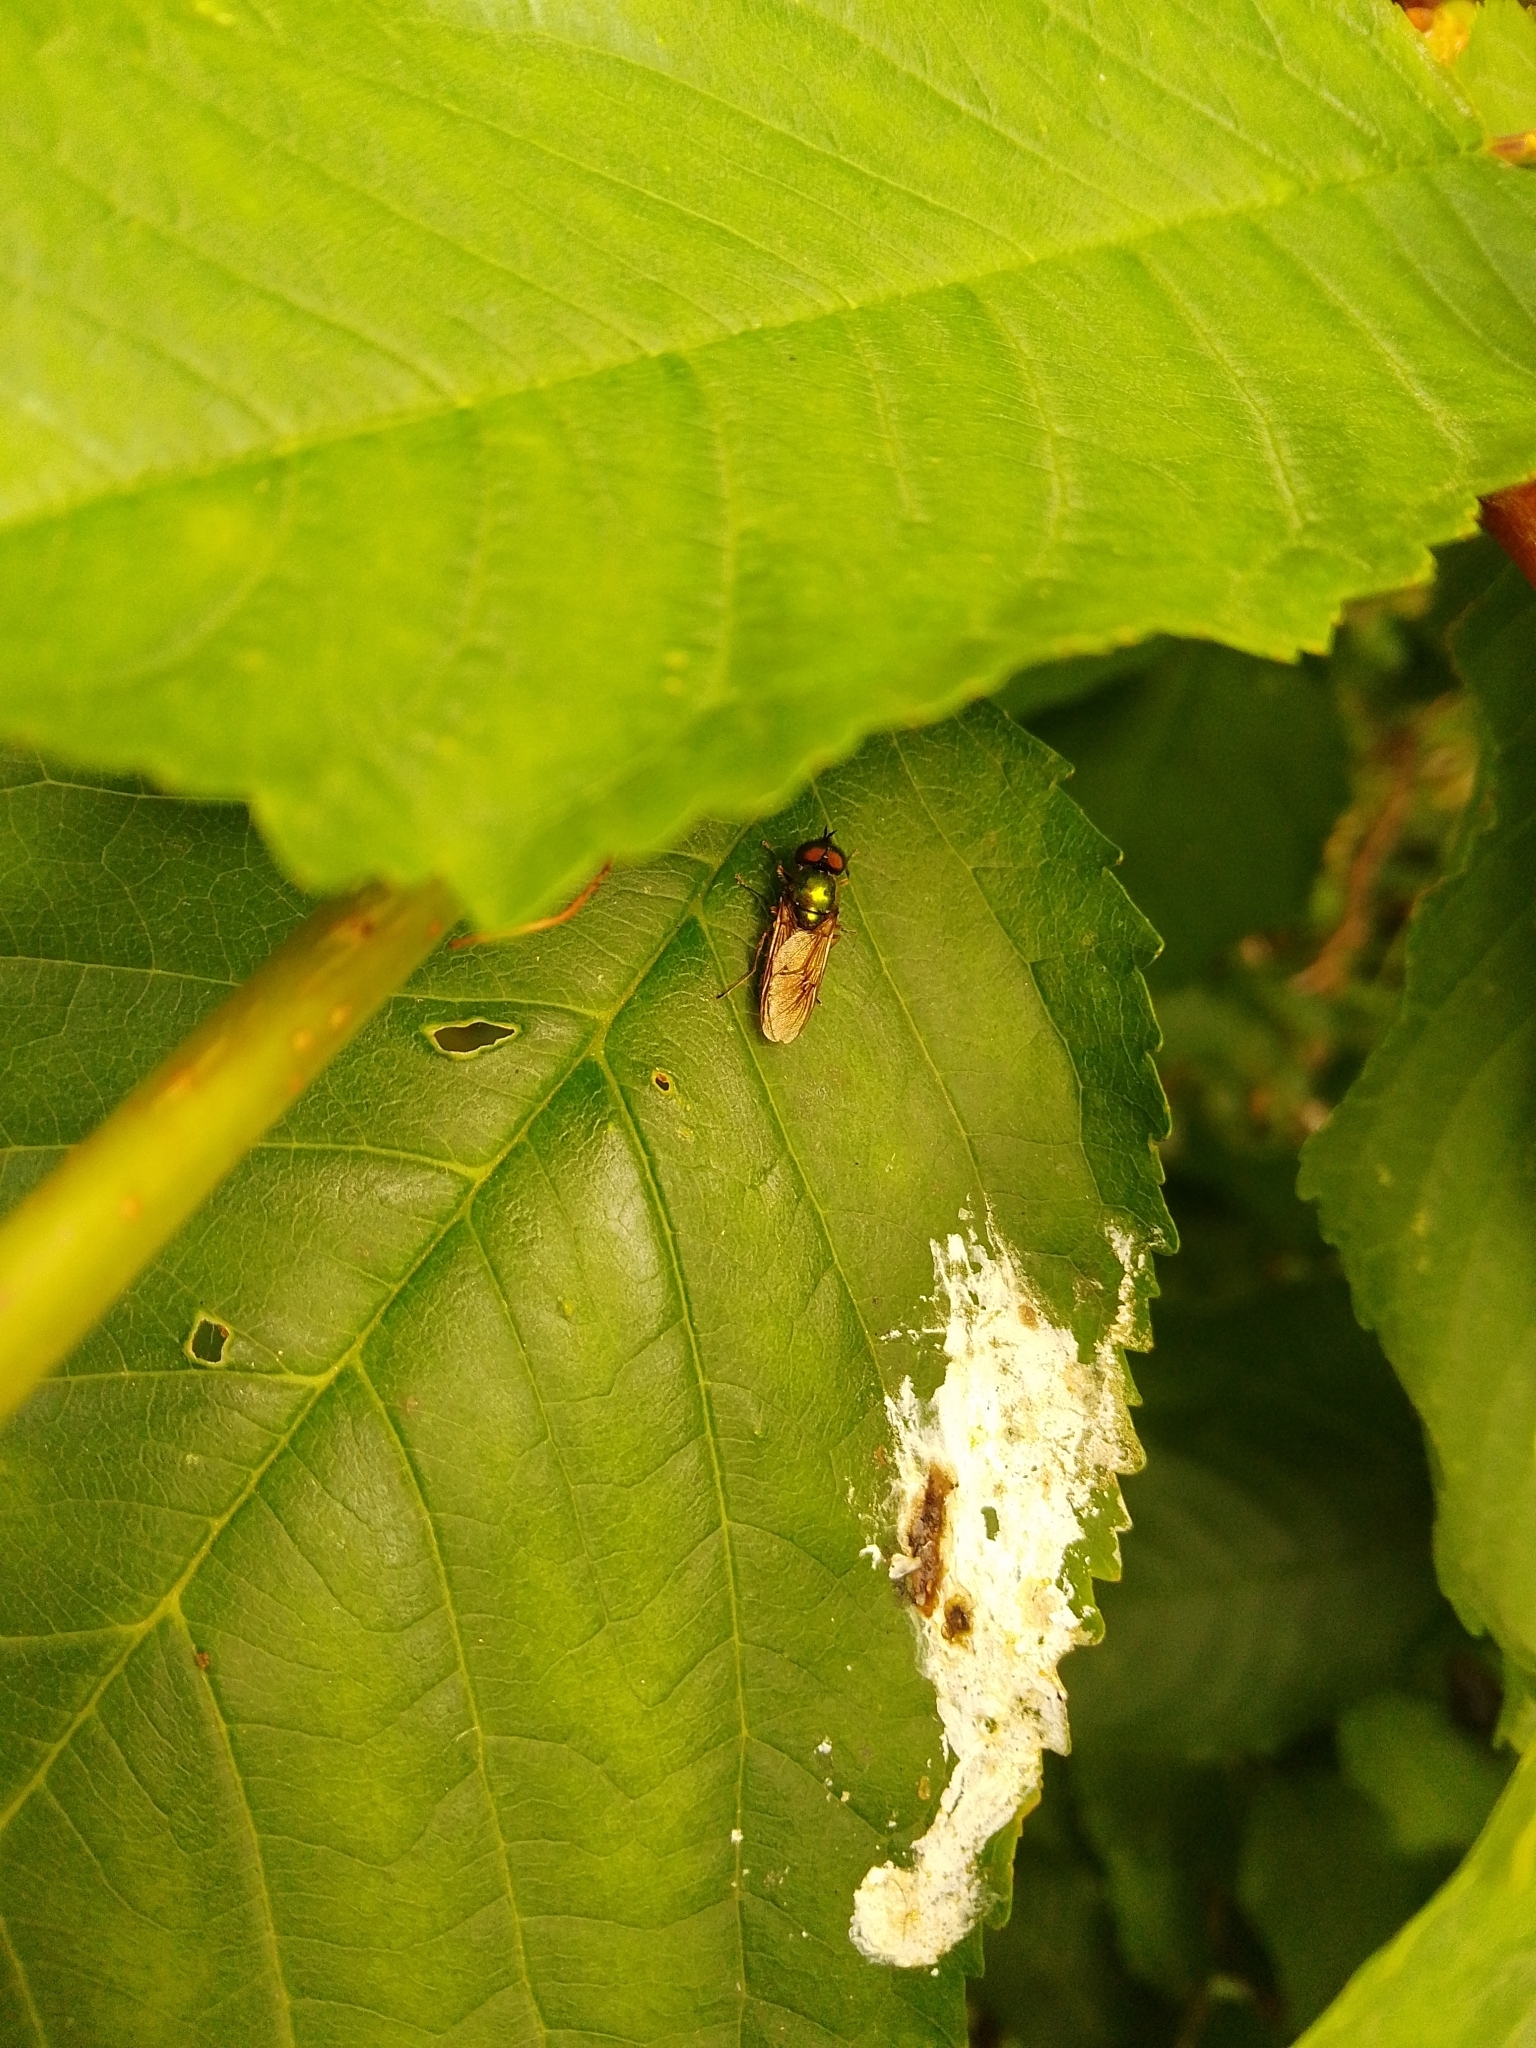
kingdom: Animalia
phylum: Arthropoda
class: Insecta
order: Diptera
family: Stratiomyidae
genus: Chloromyia
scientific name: Chloromyia formosa
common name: Soldier fly
